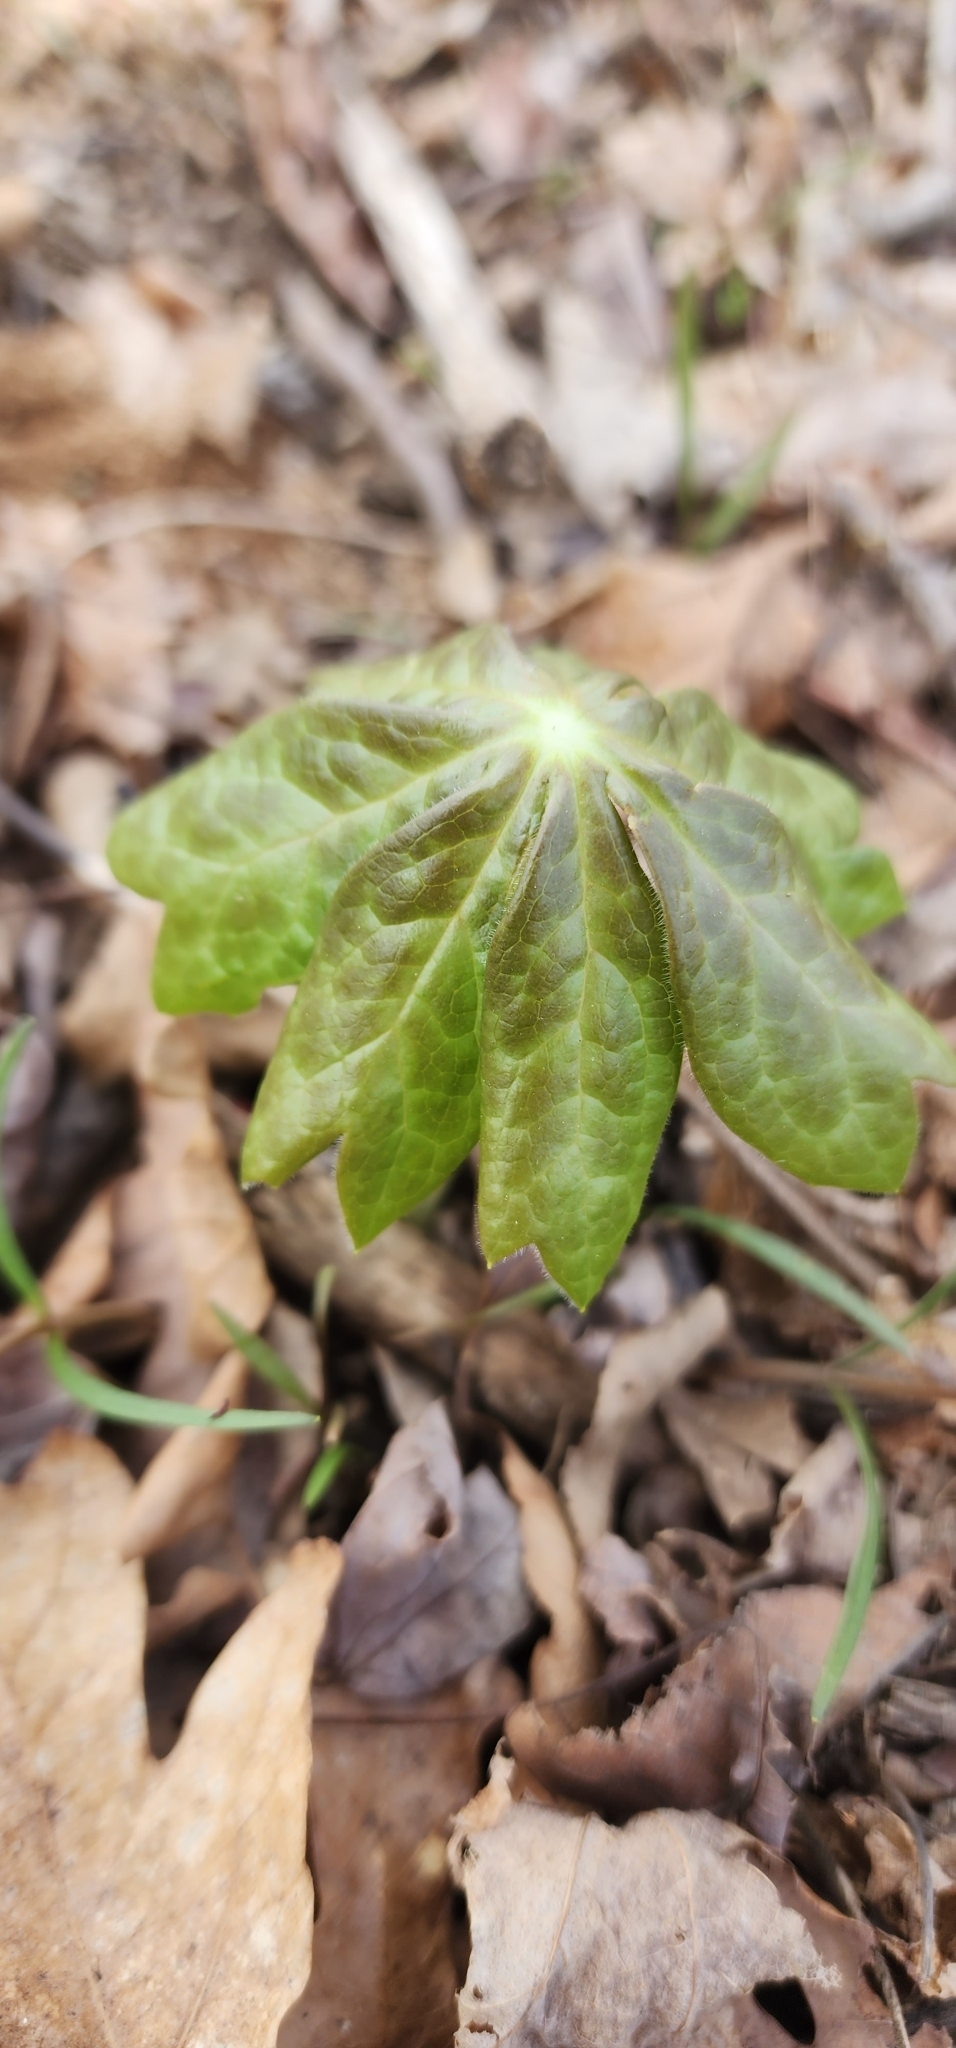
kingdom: Plantae
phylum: Tracheophyta
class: Magnoliopsida
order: Ranunculales
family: Berberidaceae
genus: Podophyllum
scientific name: Podophyllum peltatum
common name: Wild mandrake
